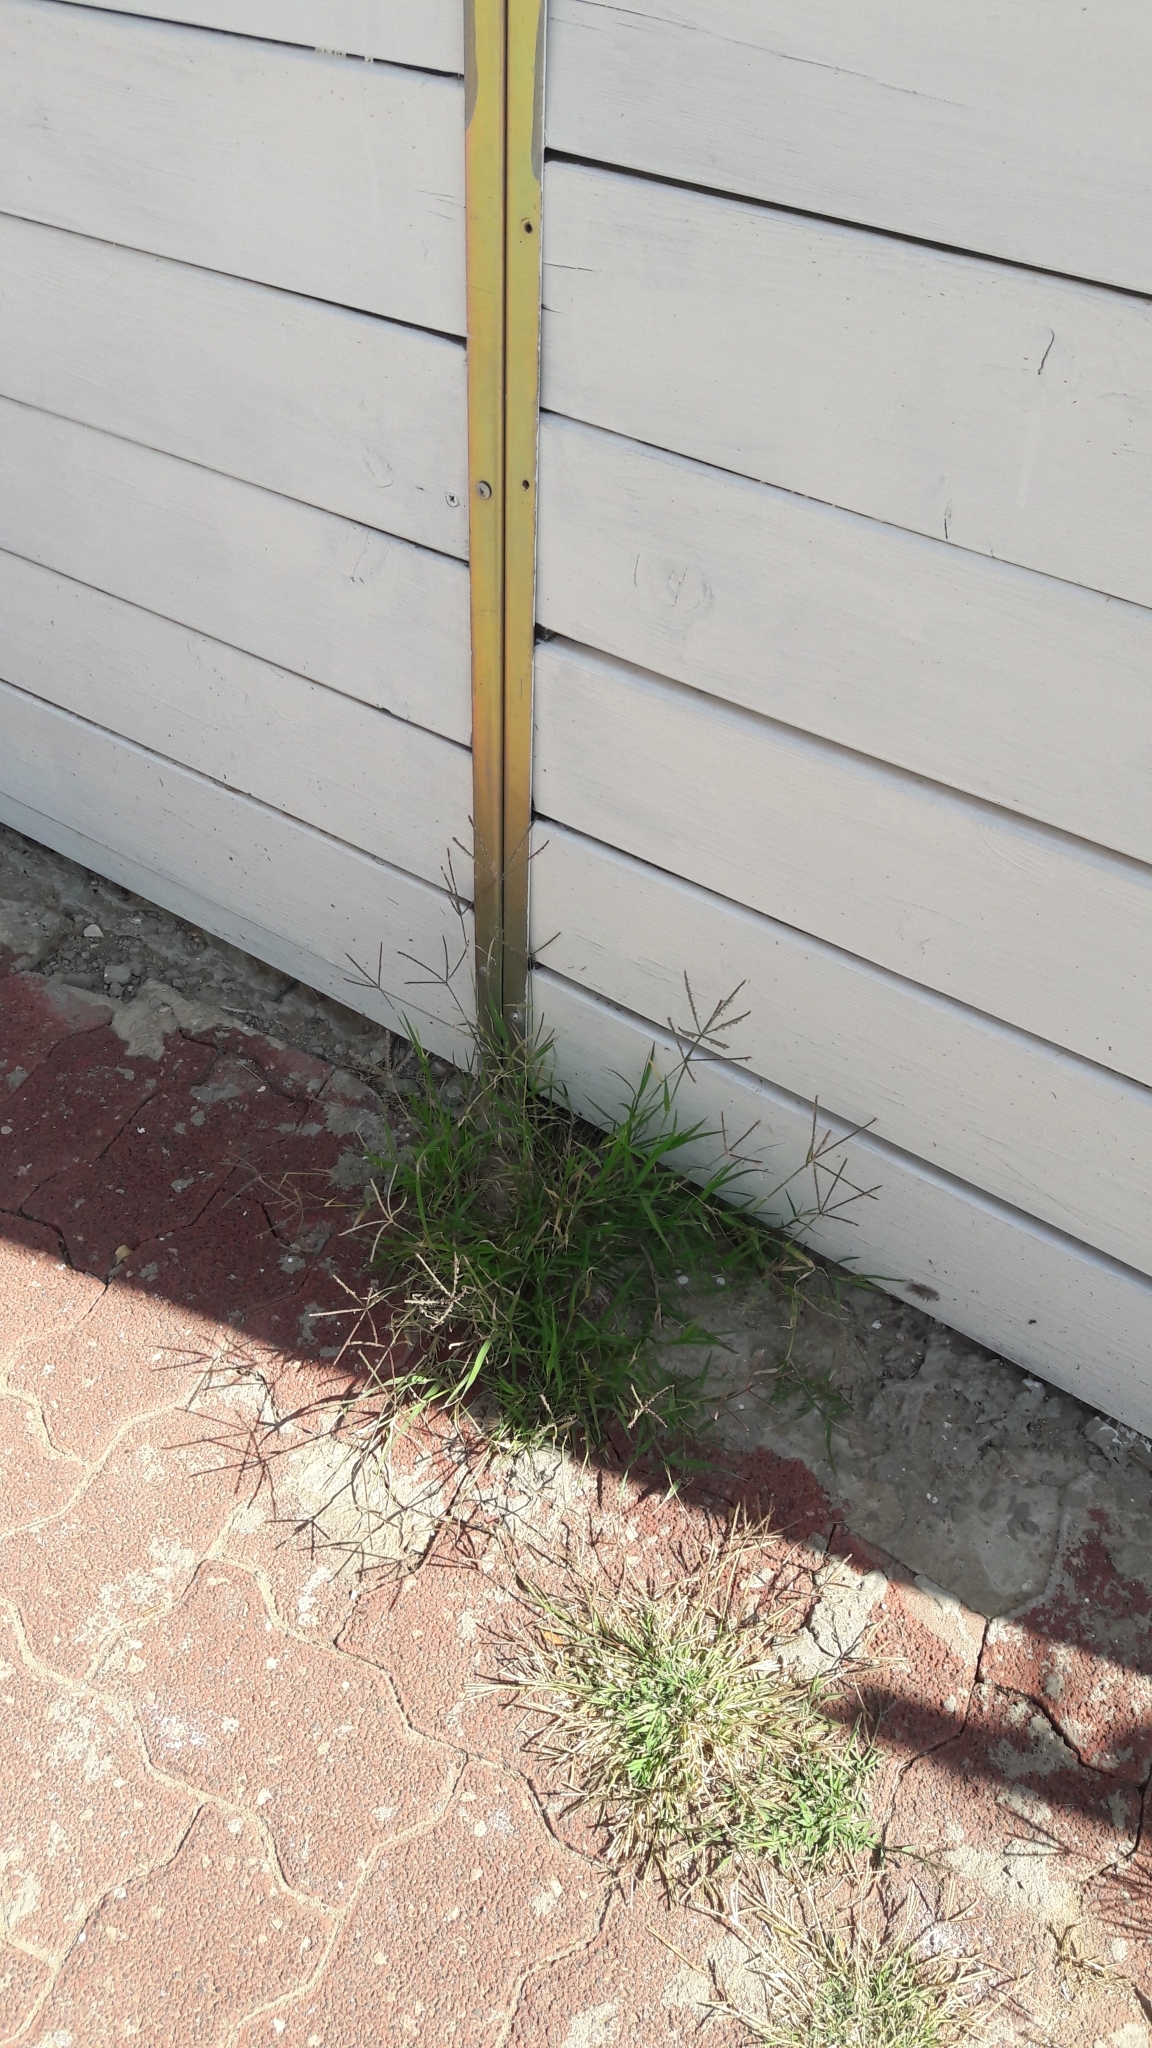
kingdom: Plantae
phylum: Tracheophyta
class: Liliopsida
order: Poales
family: Poaceae
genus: Cynodon
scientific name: Cynodon dactylon
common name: Bermuda grass
